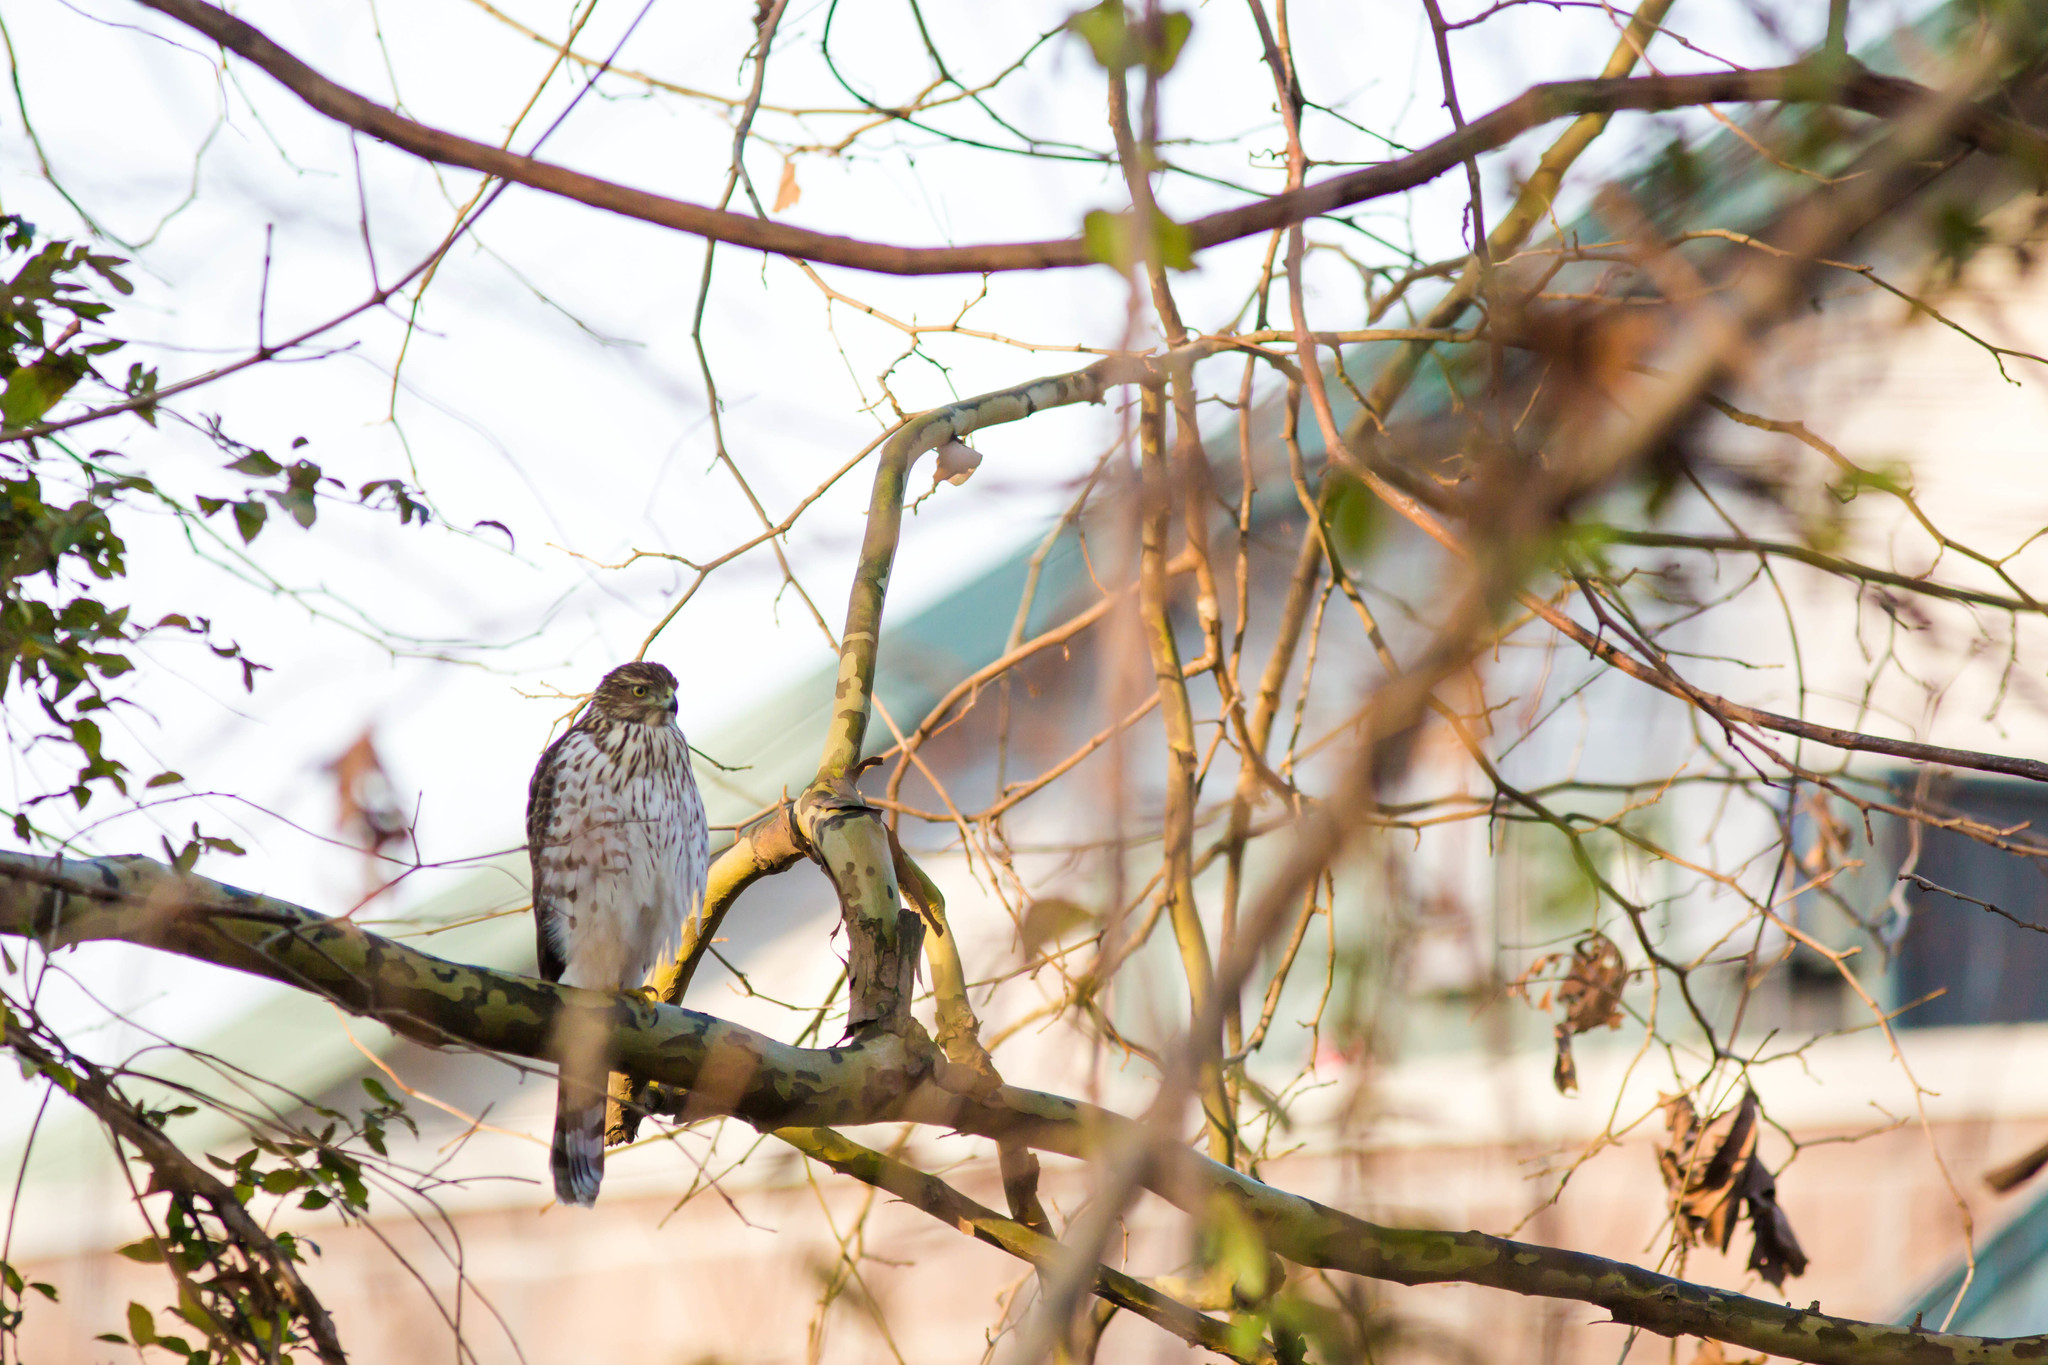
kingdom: Animalia
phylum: Chordata
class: Aves
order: Accipitriformes
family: Accipitridae
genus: Accipiter
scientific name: Accipiter cooperii
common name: Cooper's hawk
